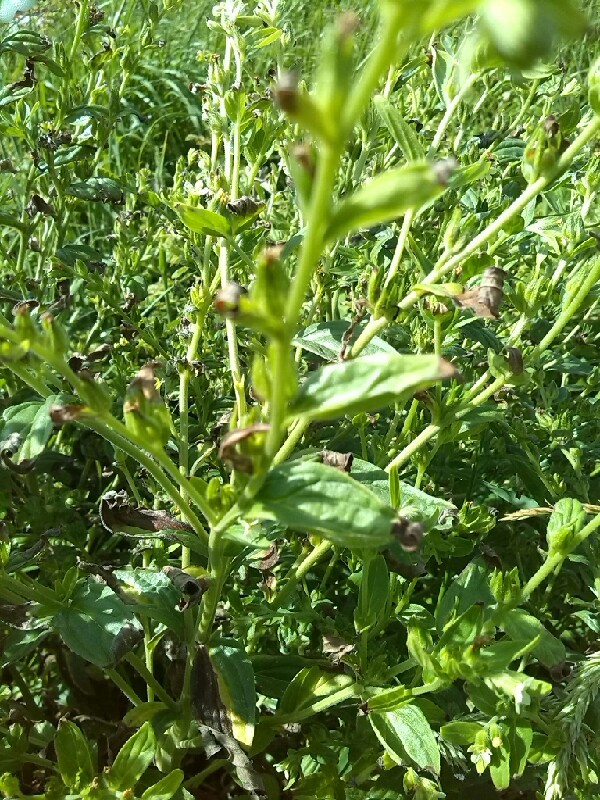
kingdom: Plantae
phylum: Tracheophyta
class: Magnoliopsida
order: Boraginales
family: Boraginaceae
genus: Lithospermum
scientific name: Lithospermum officinale
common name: Common gromwell
